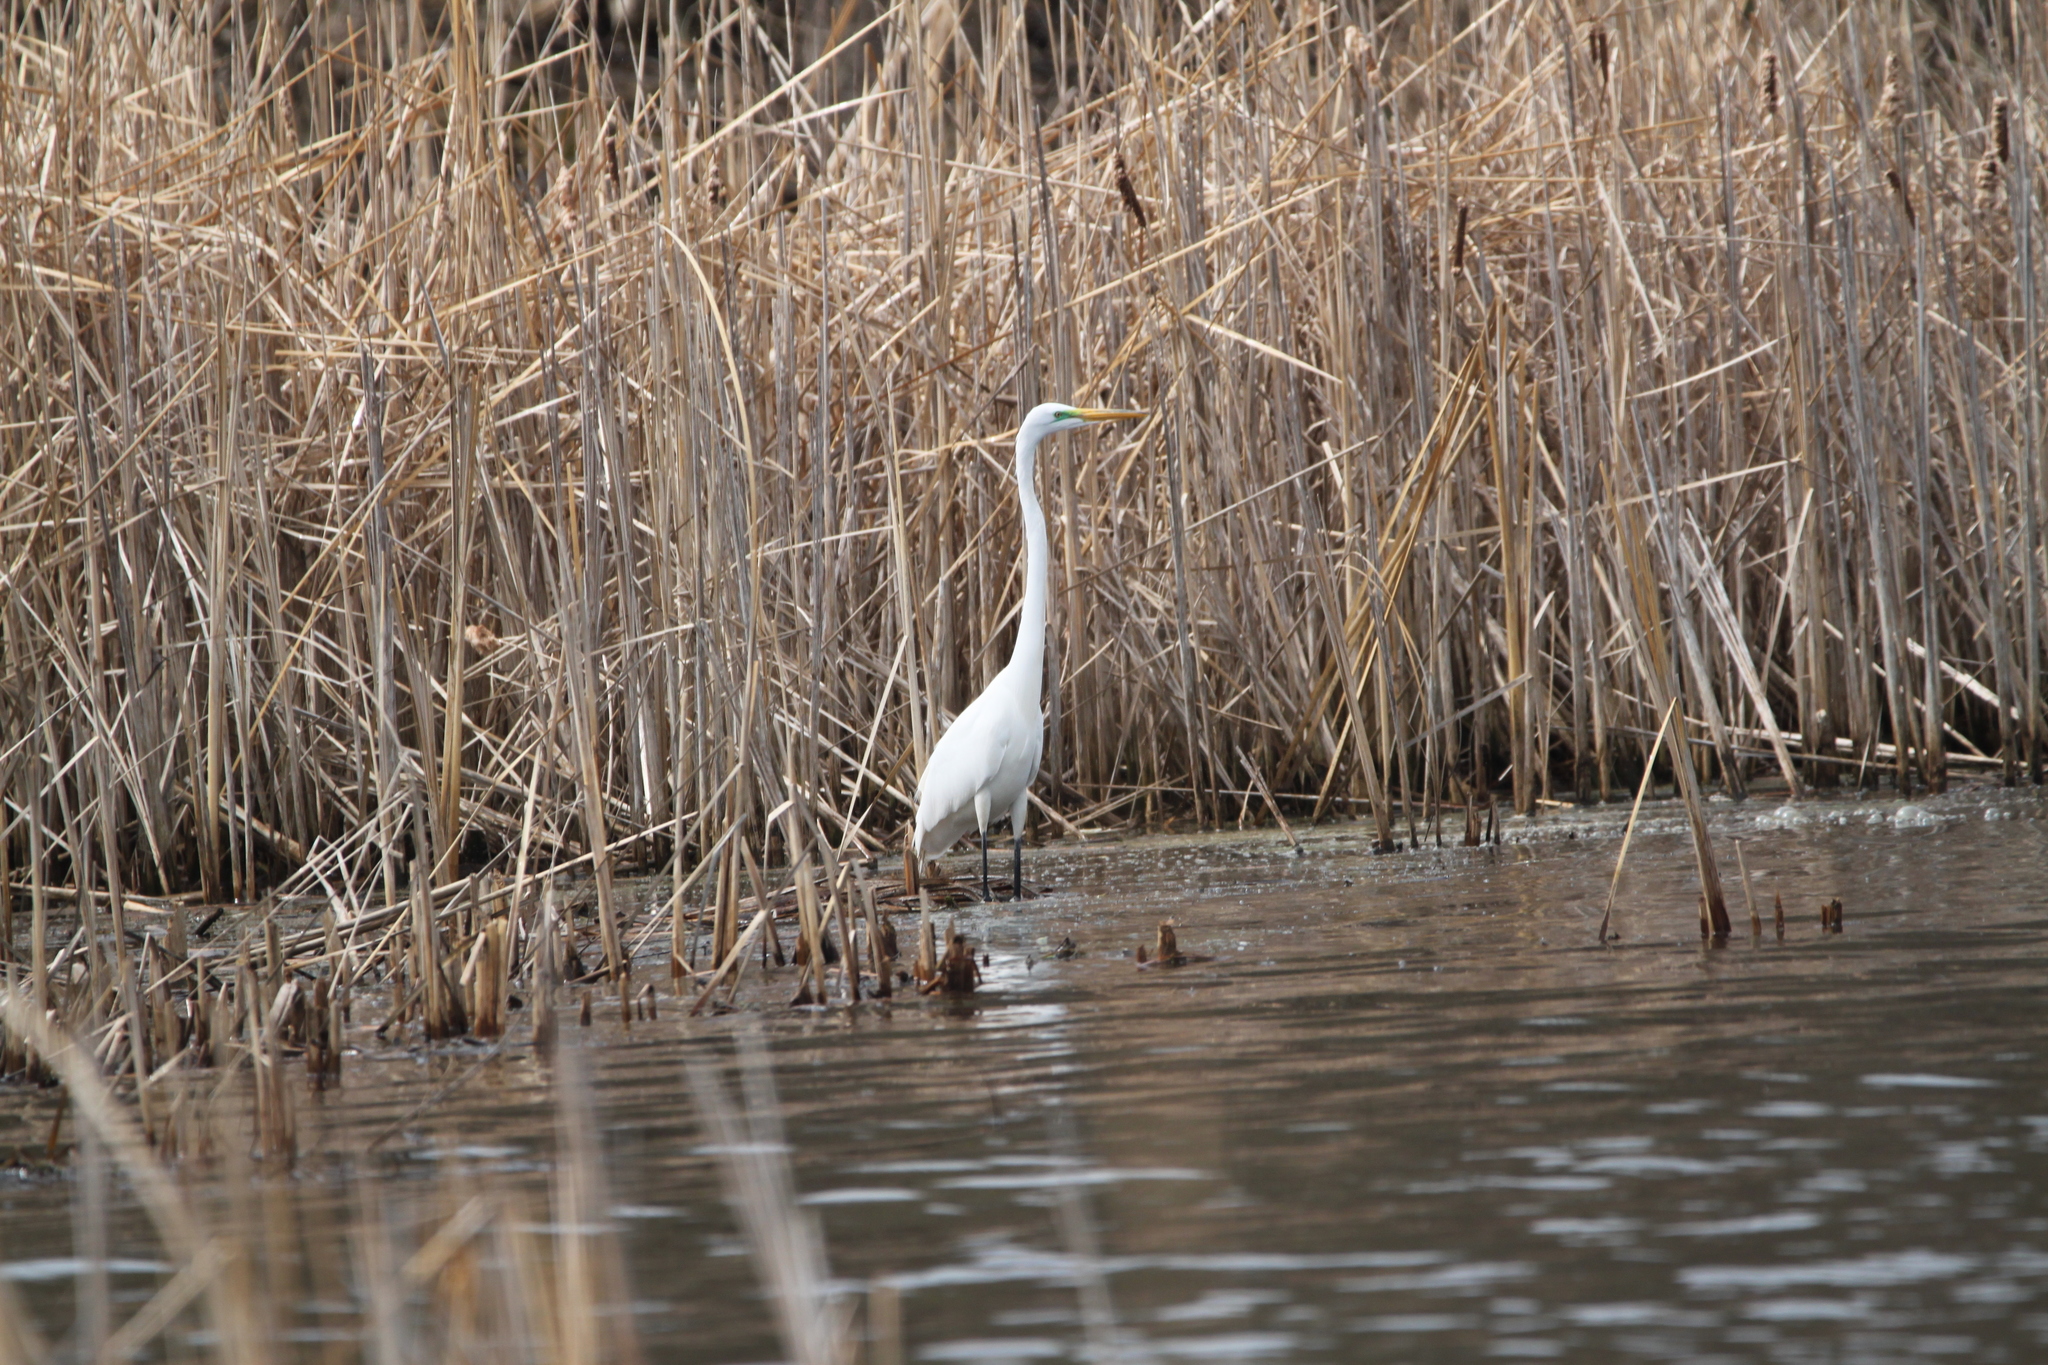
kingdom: Animalia
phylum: Chordata
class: Aves
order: Pelecaniformes
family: Ardeidae
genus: Ardea
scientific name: Ardea alba
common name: Great egret
